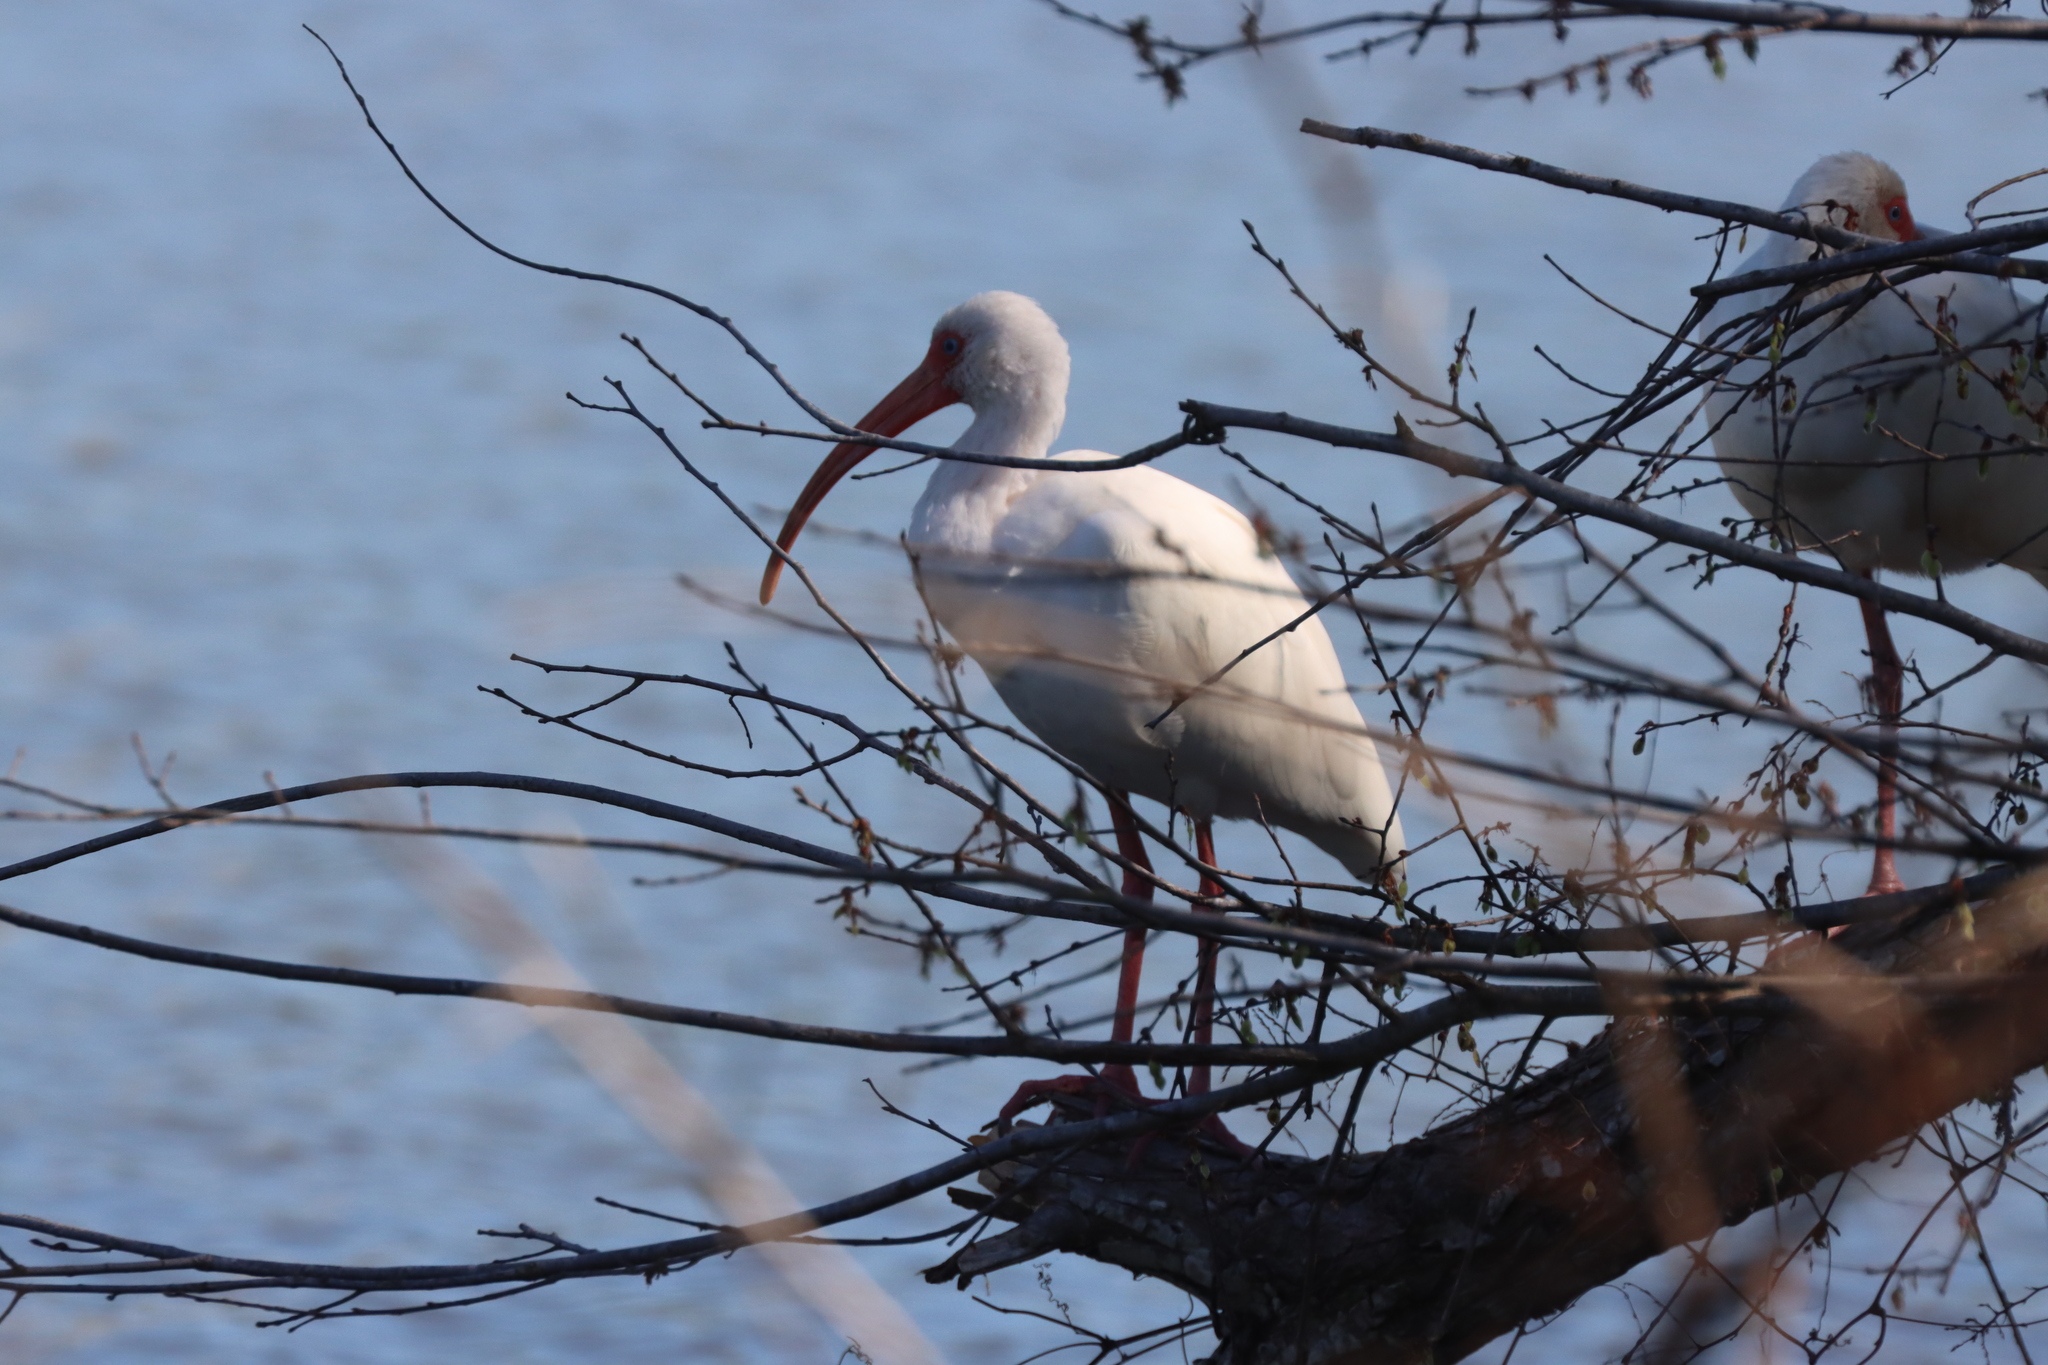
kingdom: Animalia
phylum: Chordata
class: Aves
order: Pelecaniformes
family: Threskiornithidae
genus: Eudocimus
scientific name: Eudocimus albus
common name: White ibis
